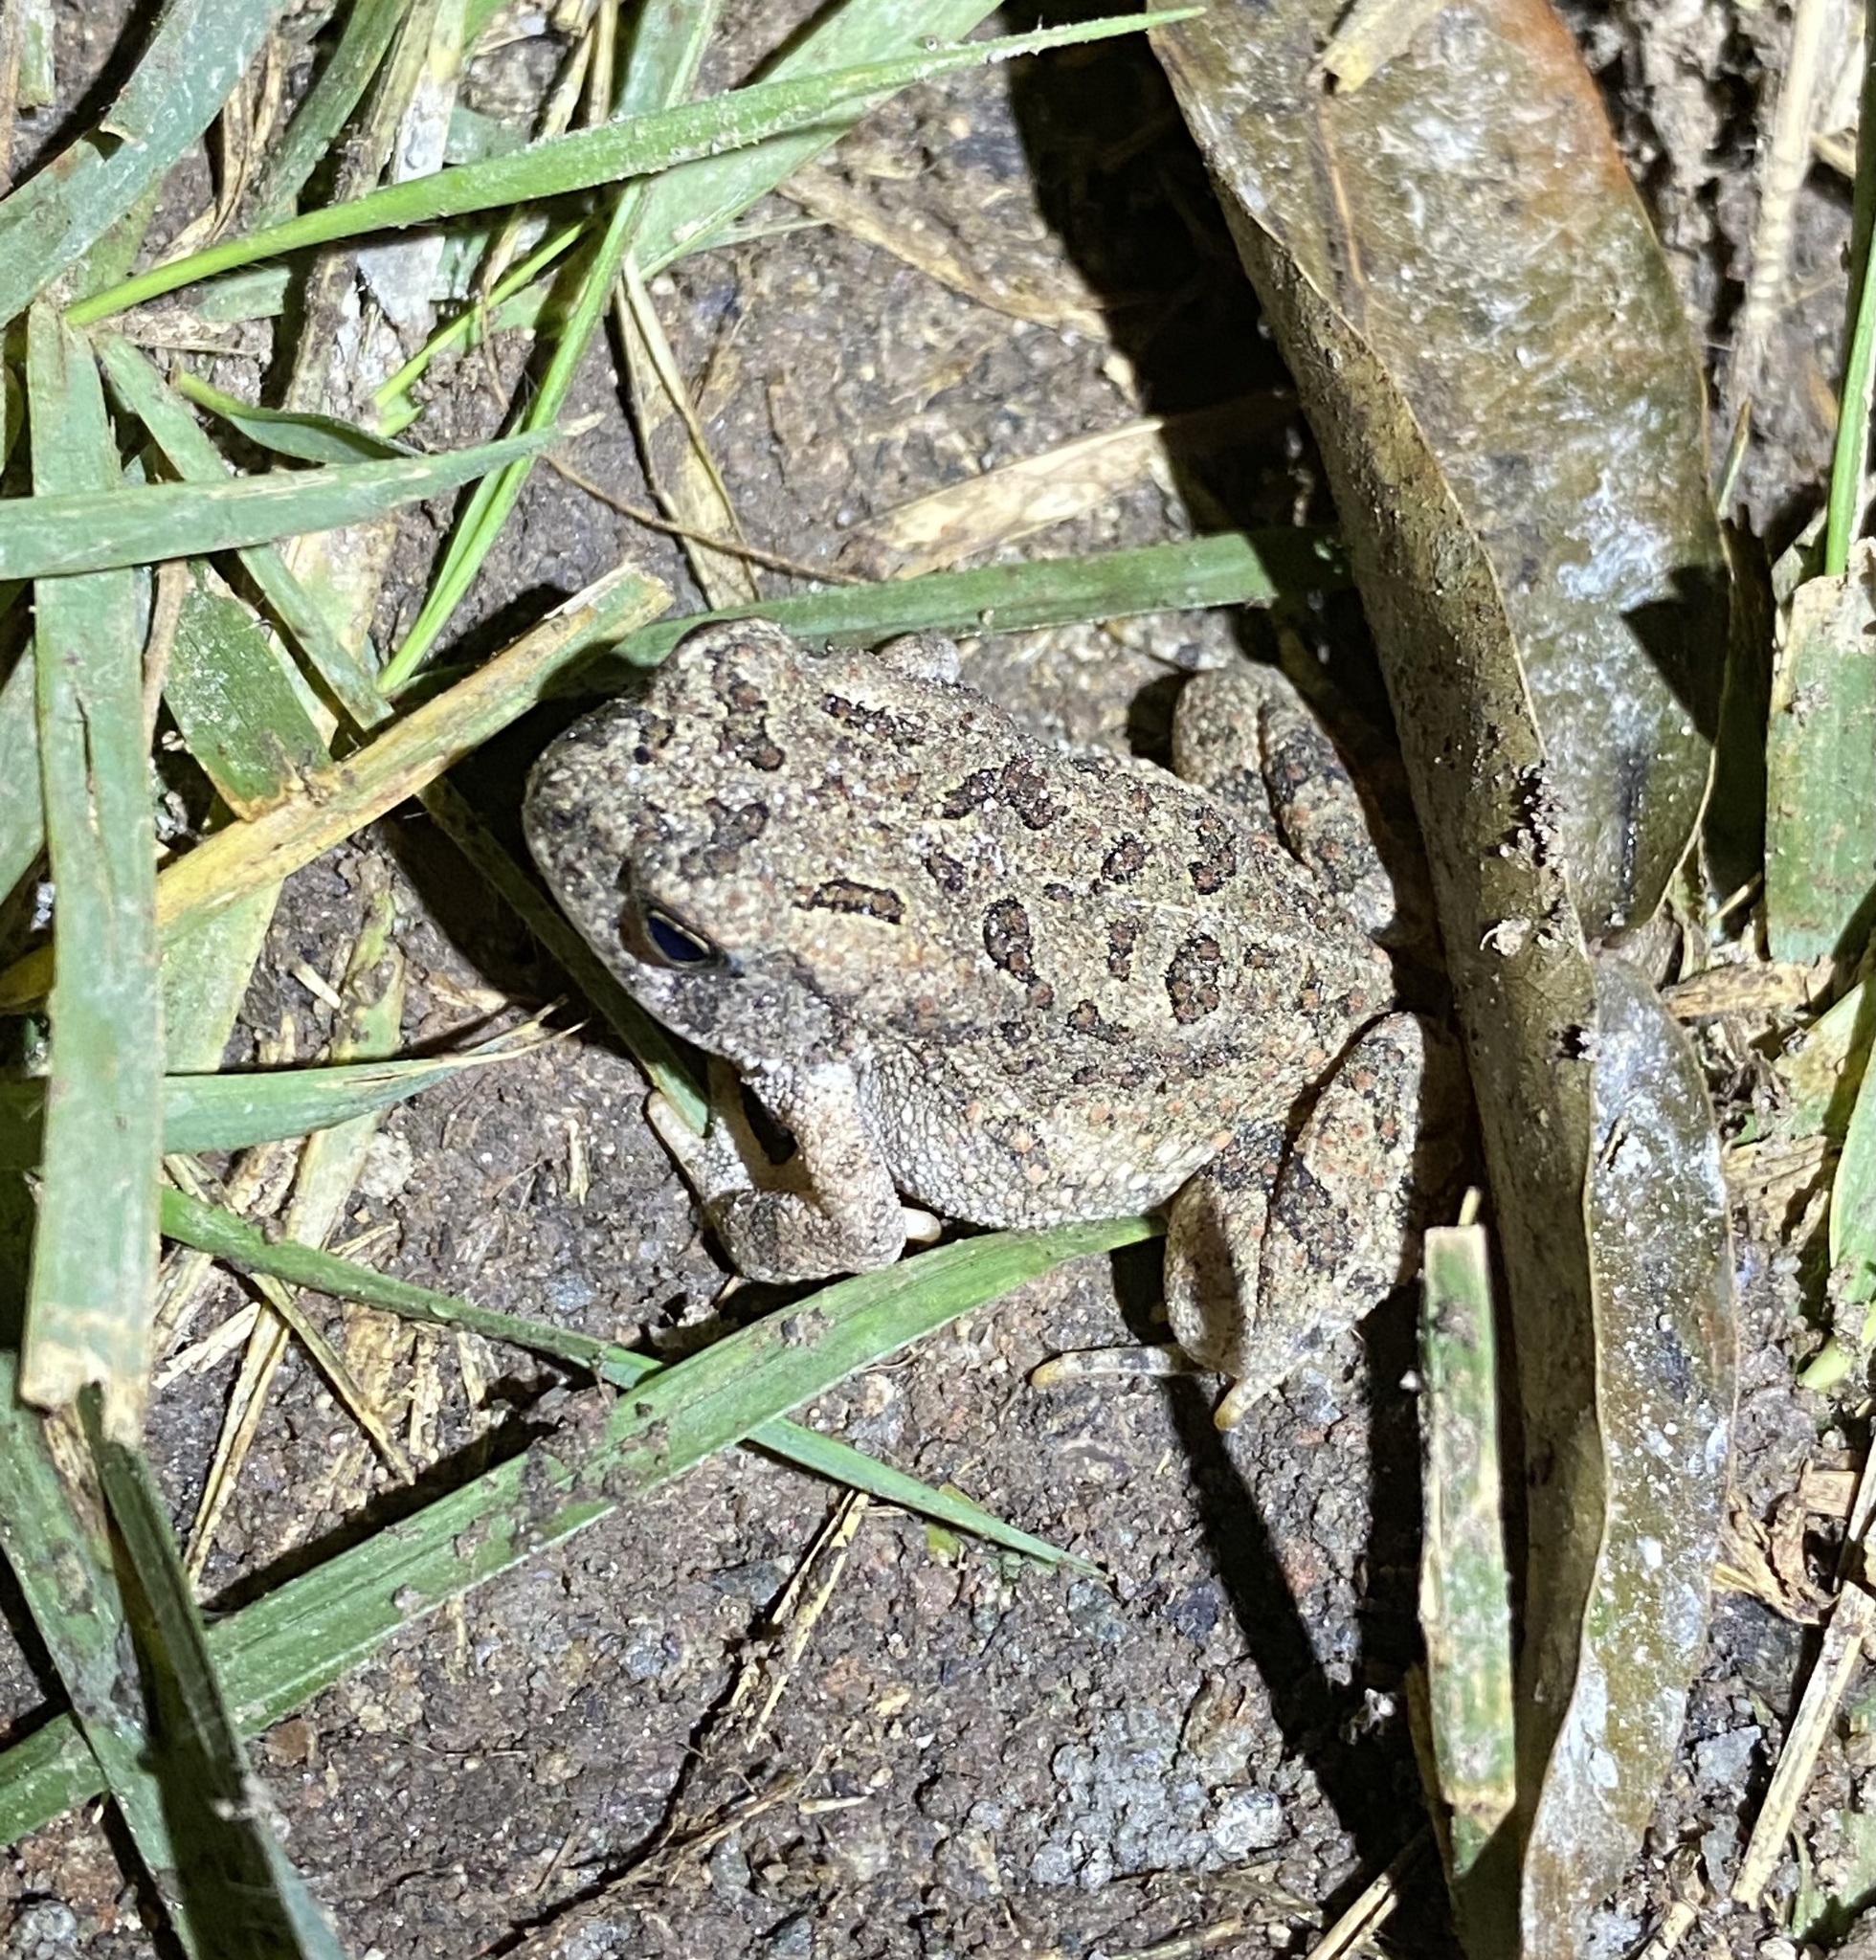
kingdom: Animalia
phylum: Chordata
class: Amphibia
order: Anura
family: Bufonidae
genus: Anaxyrus
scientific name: Anaxyrus fowleri
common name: Fowler's toad
